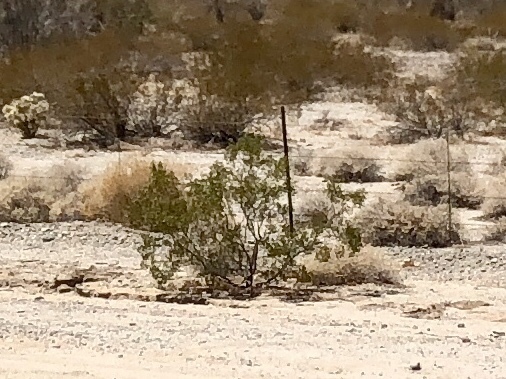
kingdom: Plantae
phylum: Tracheophyta
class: Magnoliopsida
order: Zygophyllales
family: Zygophyllaceae
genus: Larrea
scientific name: Larrea tridentata
